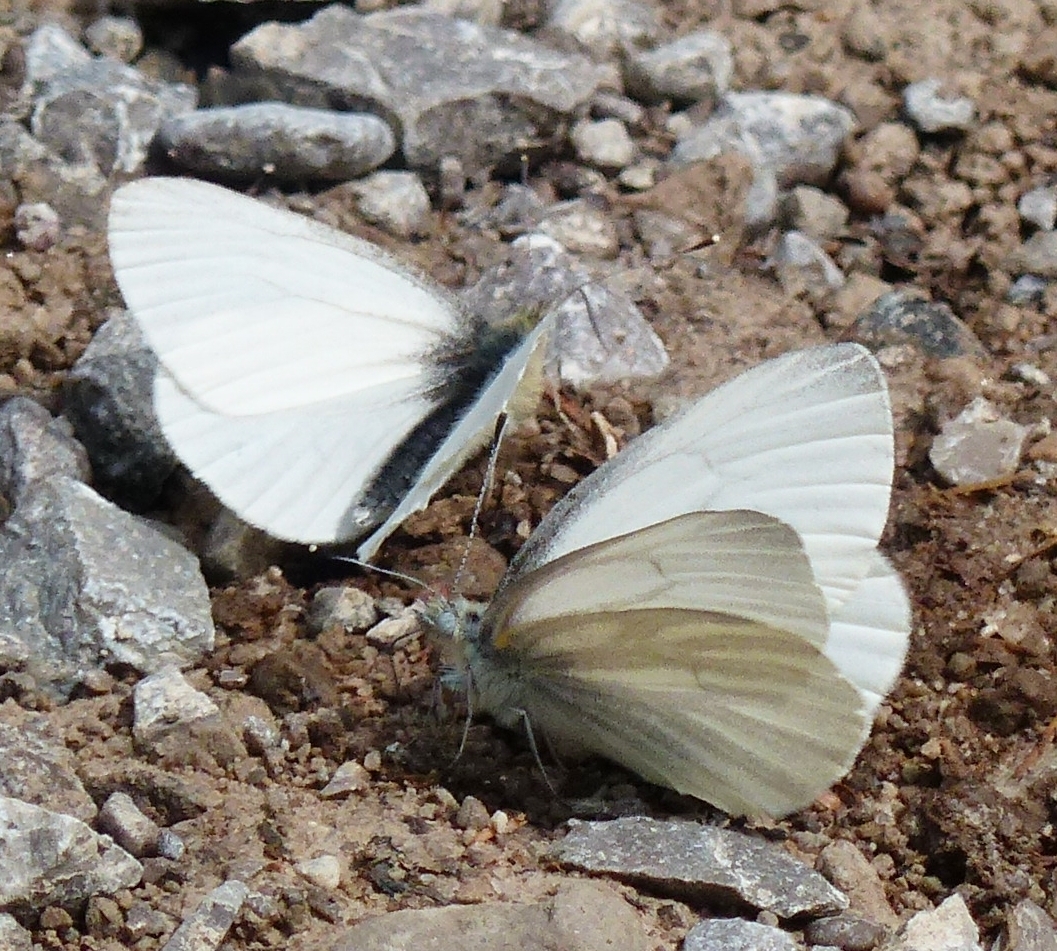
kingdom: Animalia
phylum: Arthropoda
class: Insecta
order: Lepidoptera
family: Pieridae
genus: Pieris
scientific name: Pieris virginiensis
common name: West virginia white
